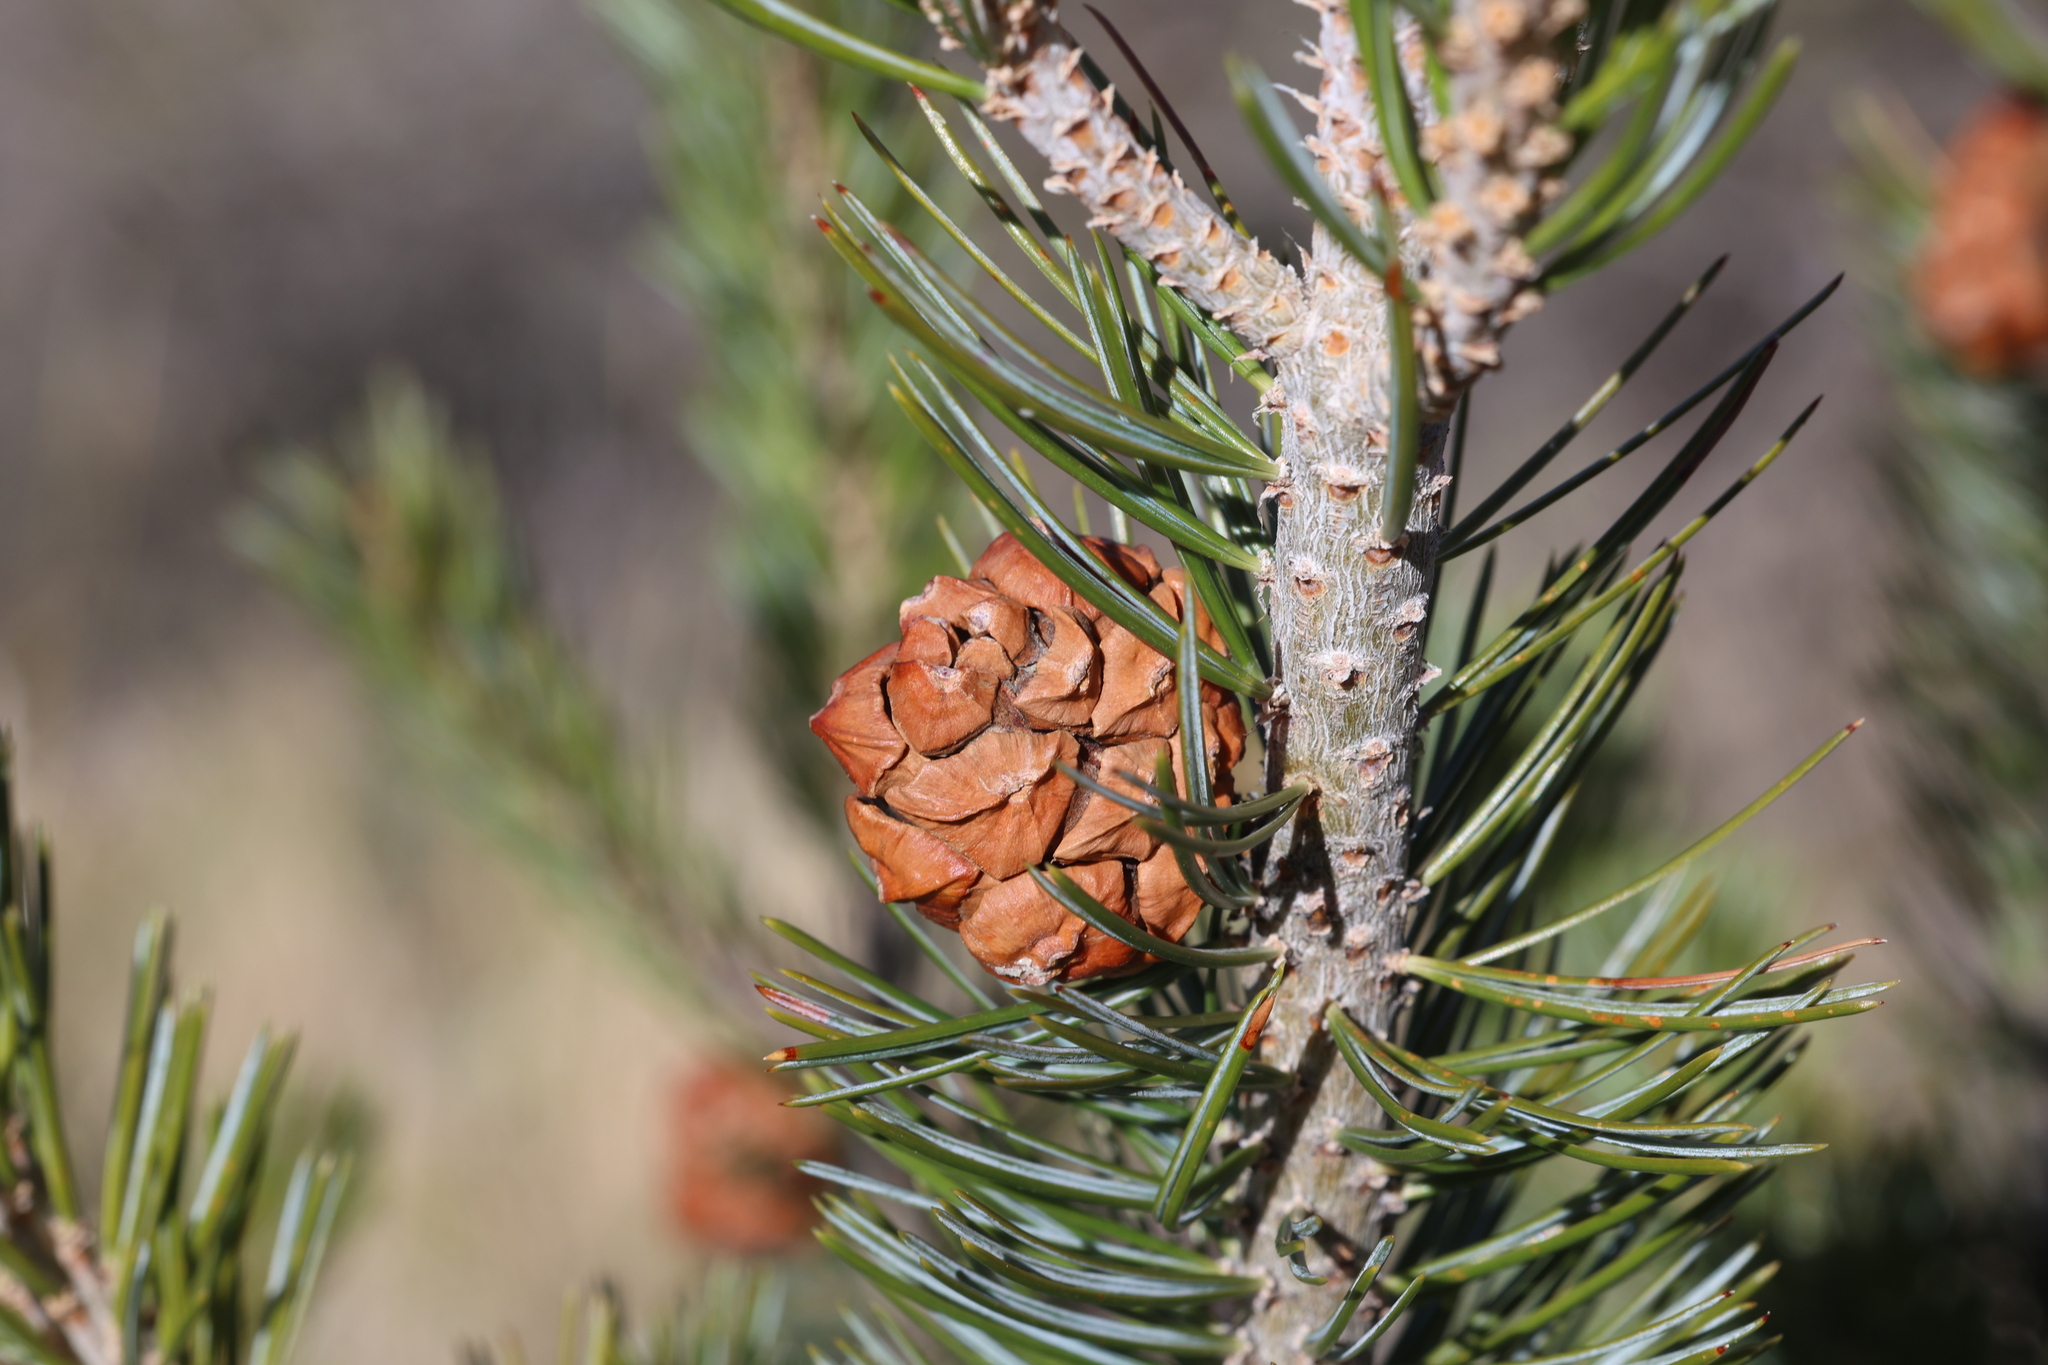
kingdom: Plantae
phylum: Tracheophyta
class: Pinopsida
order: Pinales
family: Pinaceae
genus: Pinus
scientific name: Pinus discolor
